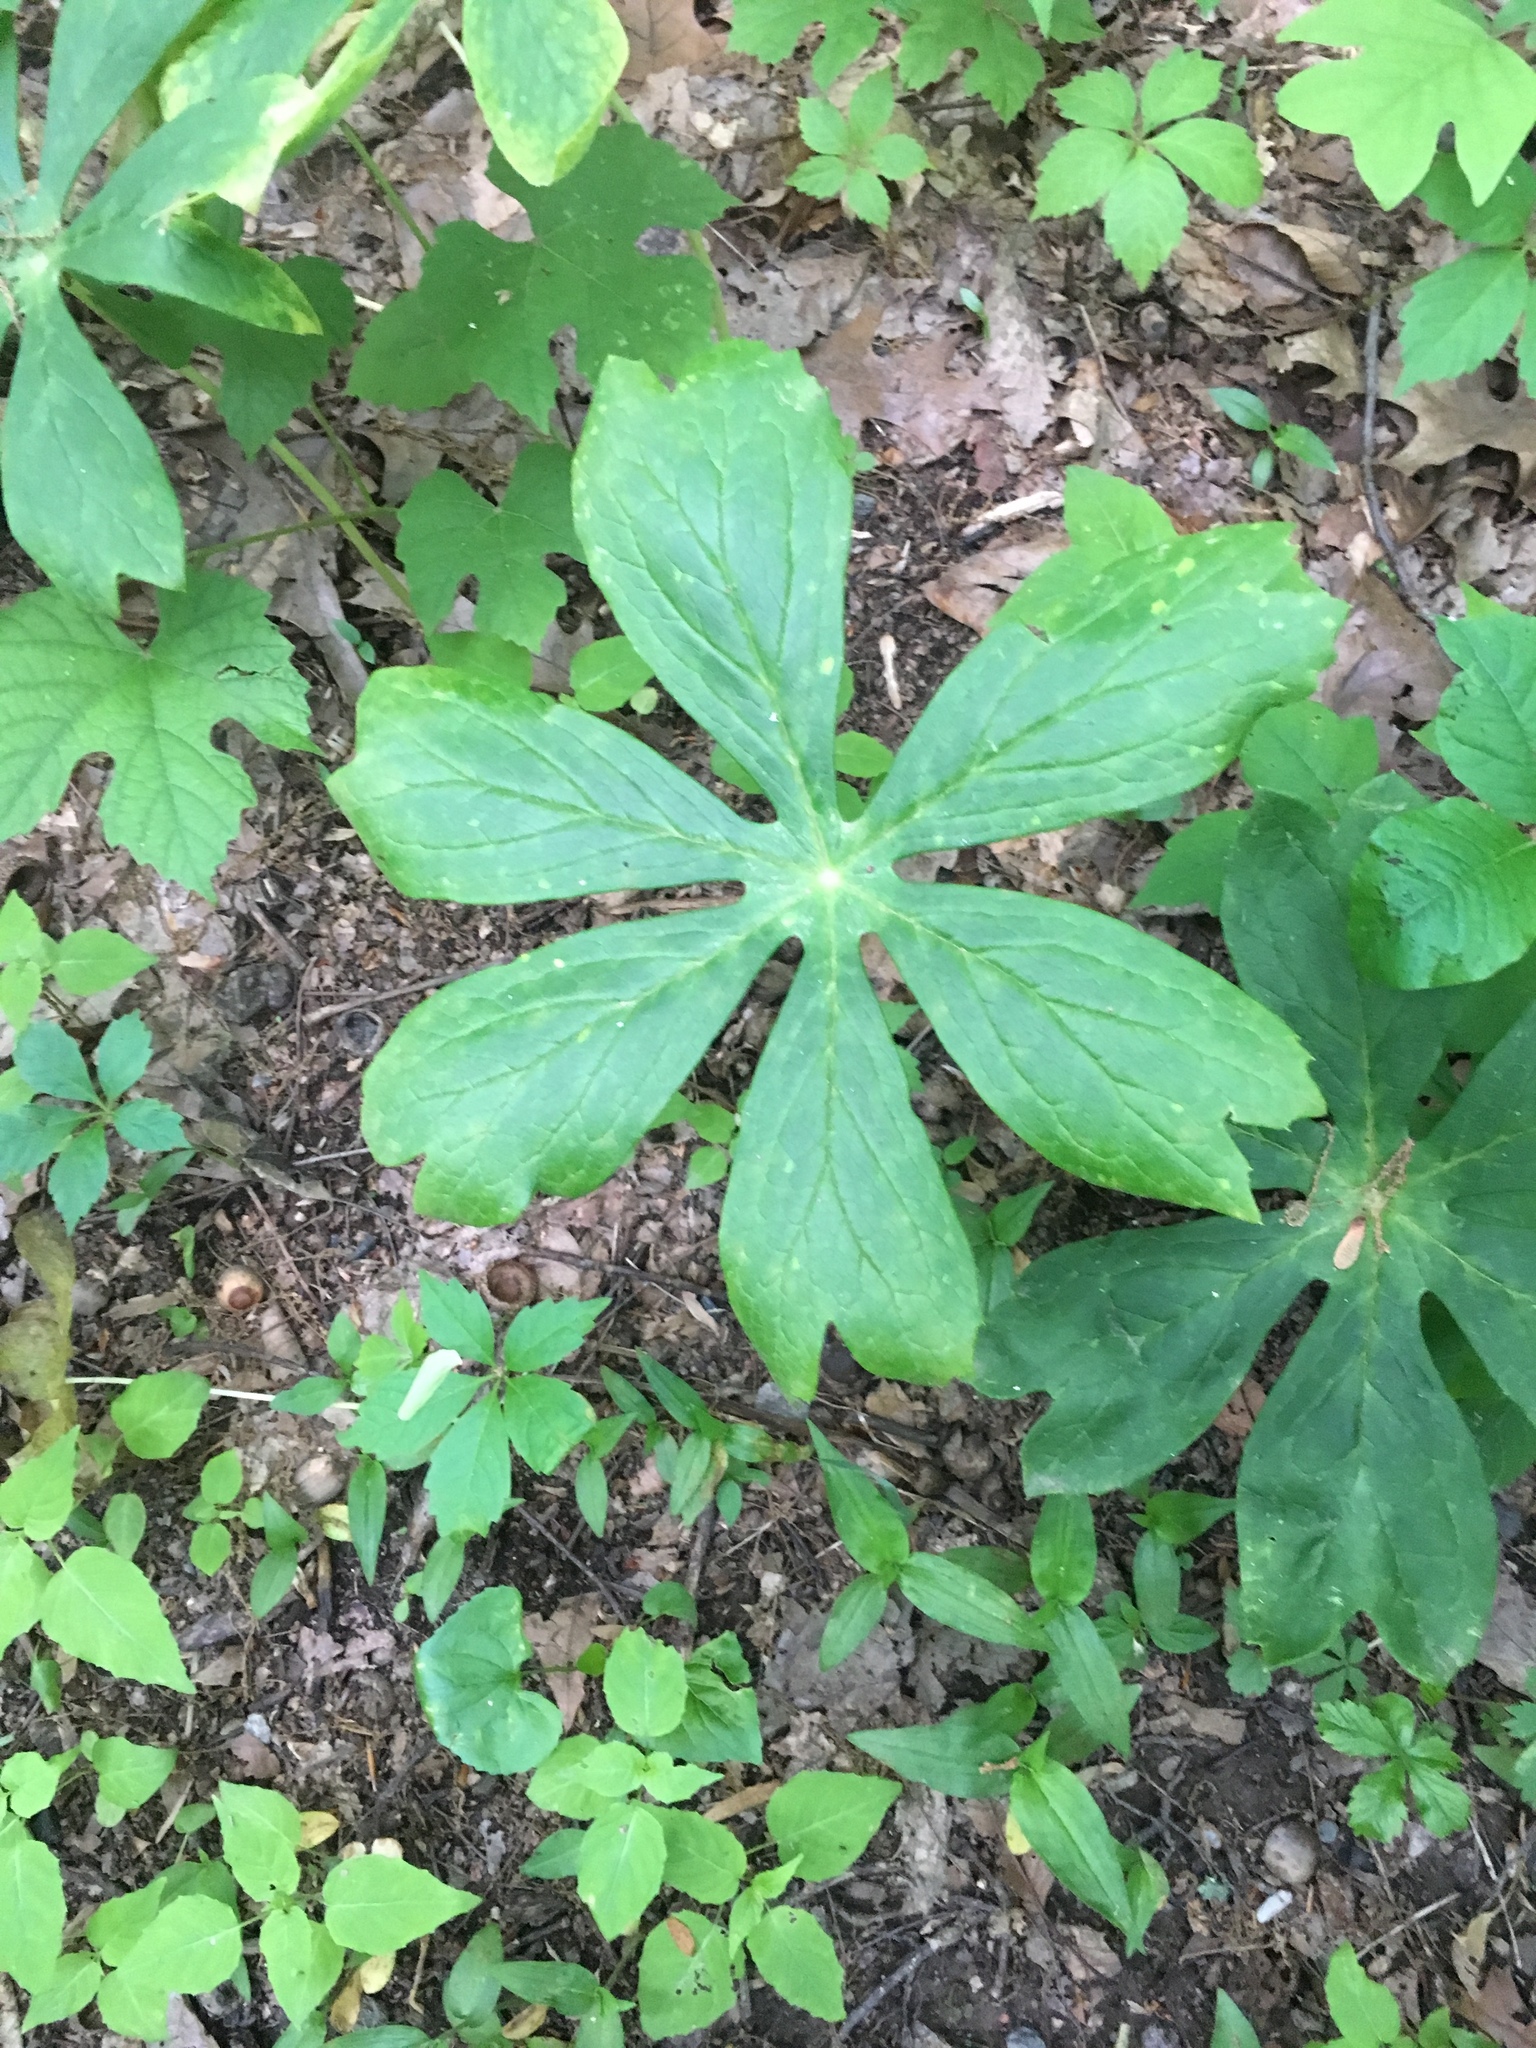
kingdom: Plantae
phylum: Tracheophyta
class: Magnoliopsida
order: Ranunculales
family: Berberidaceae
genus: Podophyllum
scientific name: Podophyllum peltatum
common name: Wild mandrake
